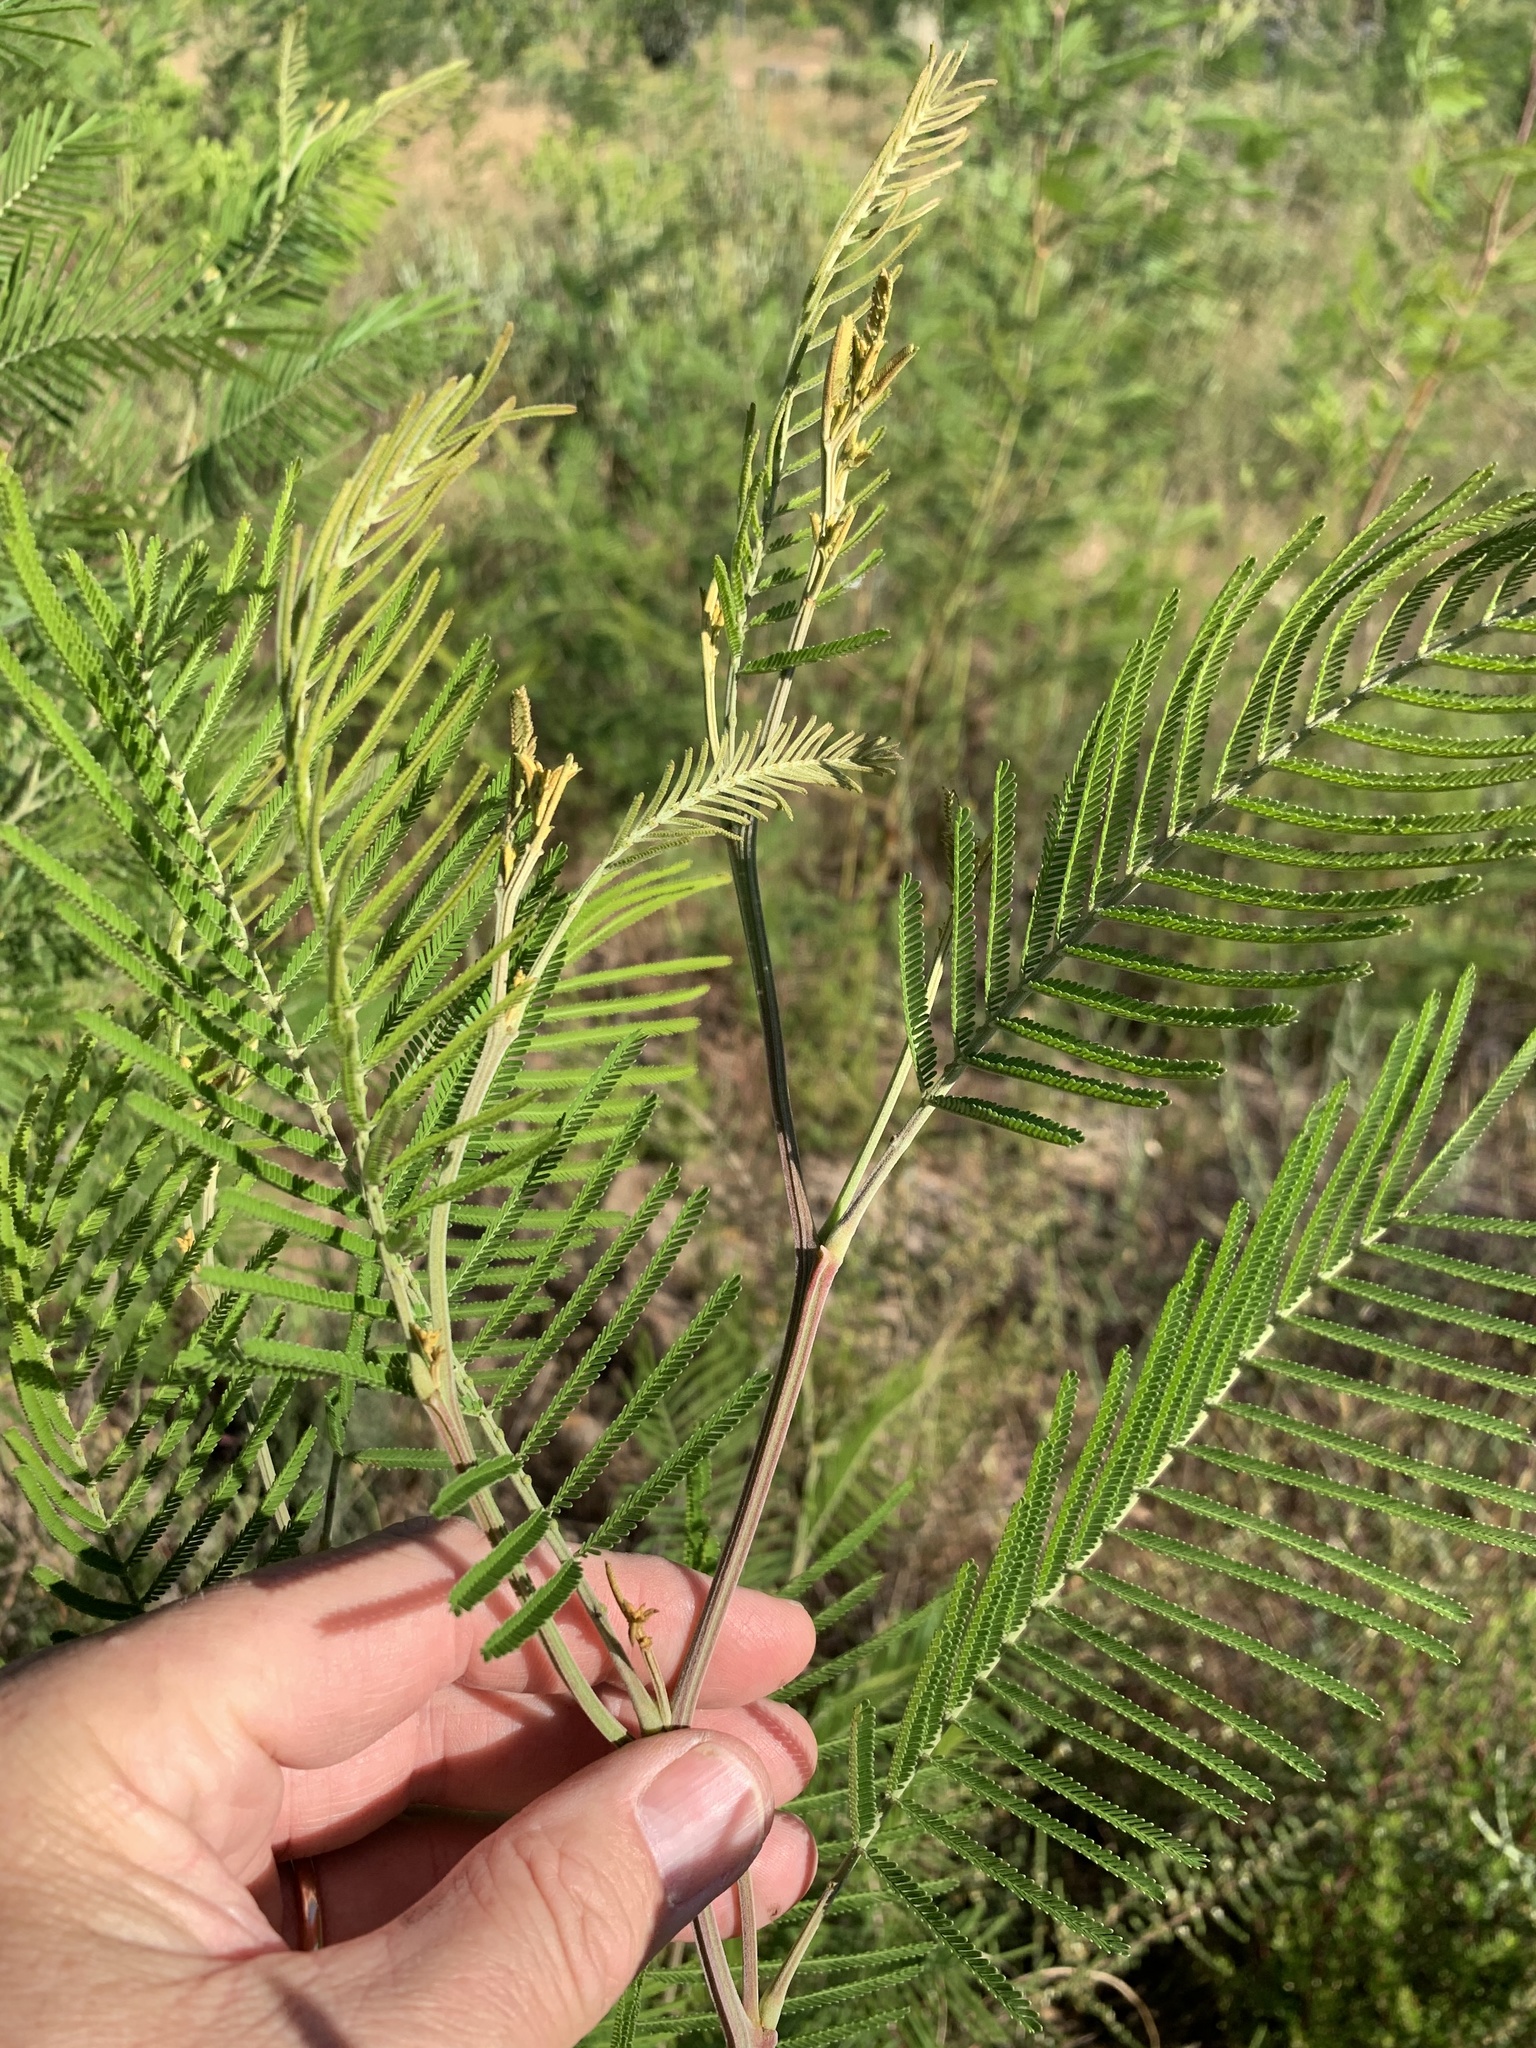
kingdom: Plantae
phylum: Tracheophyta
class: Magnoliopsida
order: Fabales
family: Fabaceae
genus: Acacia
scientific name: Acacia mearnsii
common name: Black wattle
